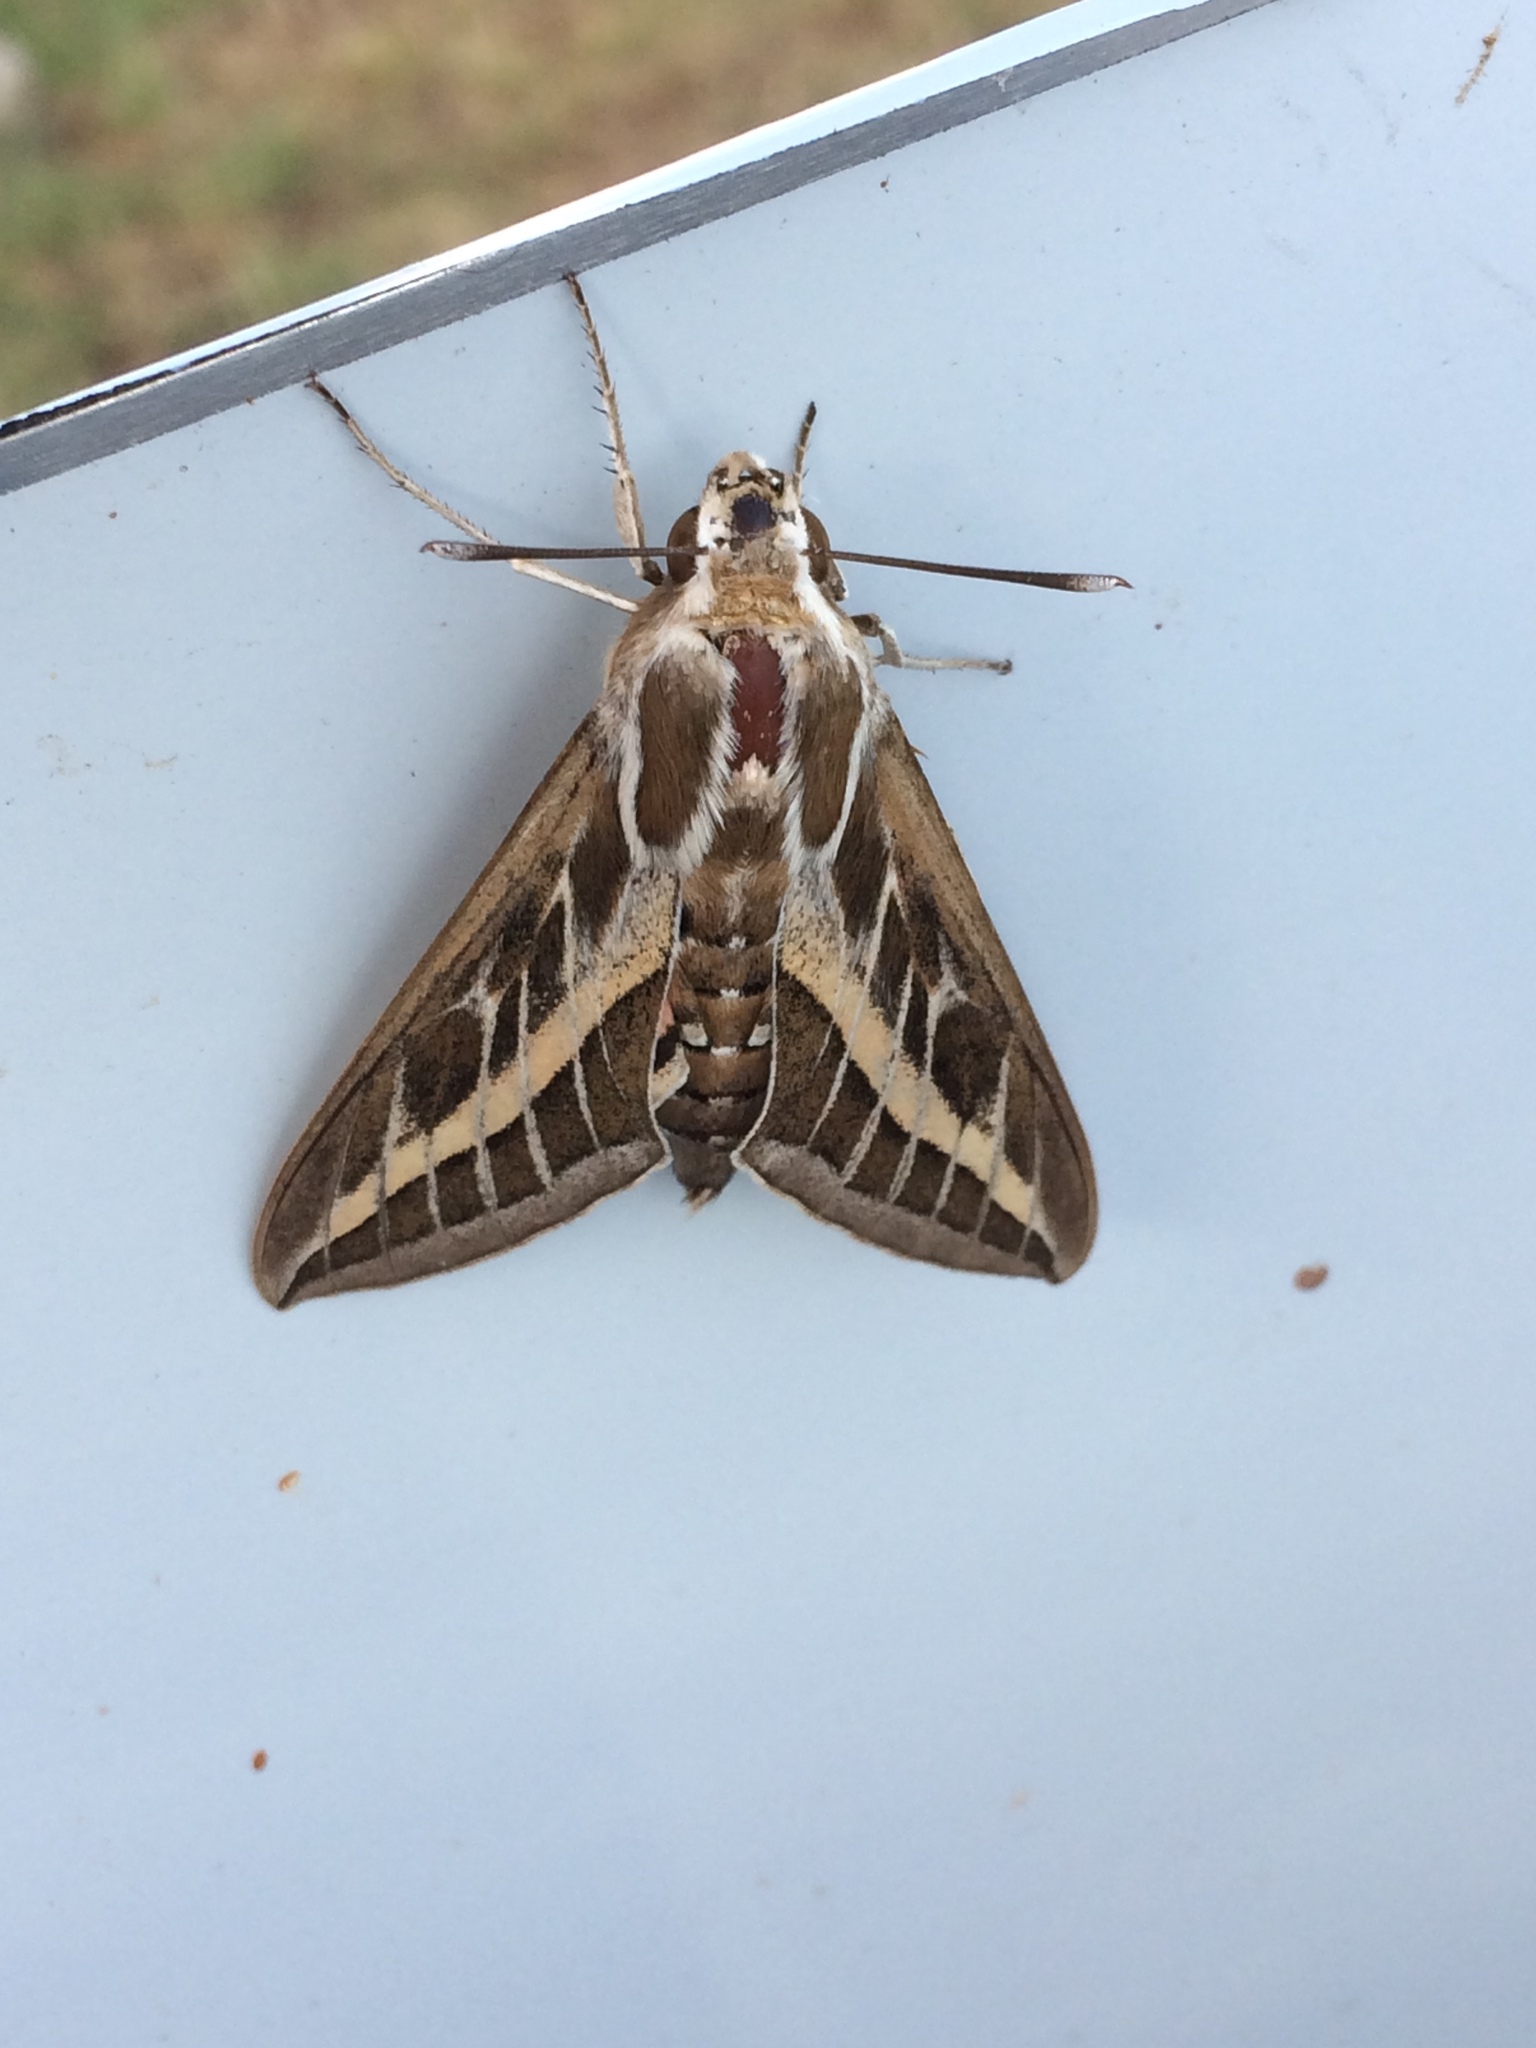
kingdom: Animalia
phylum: Arthropoda
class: Insecta
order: Lepidoptera
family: Sphingidae
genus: Hyles
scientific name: Hyles livornica
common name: Striped hawk-moth
